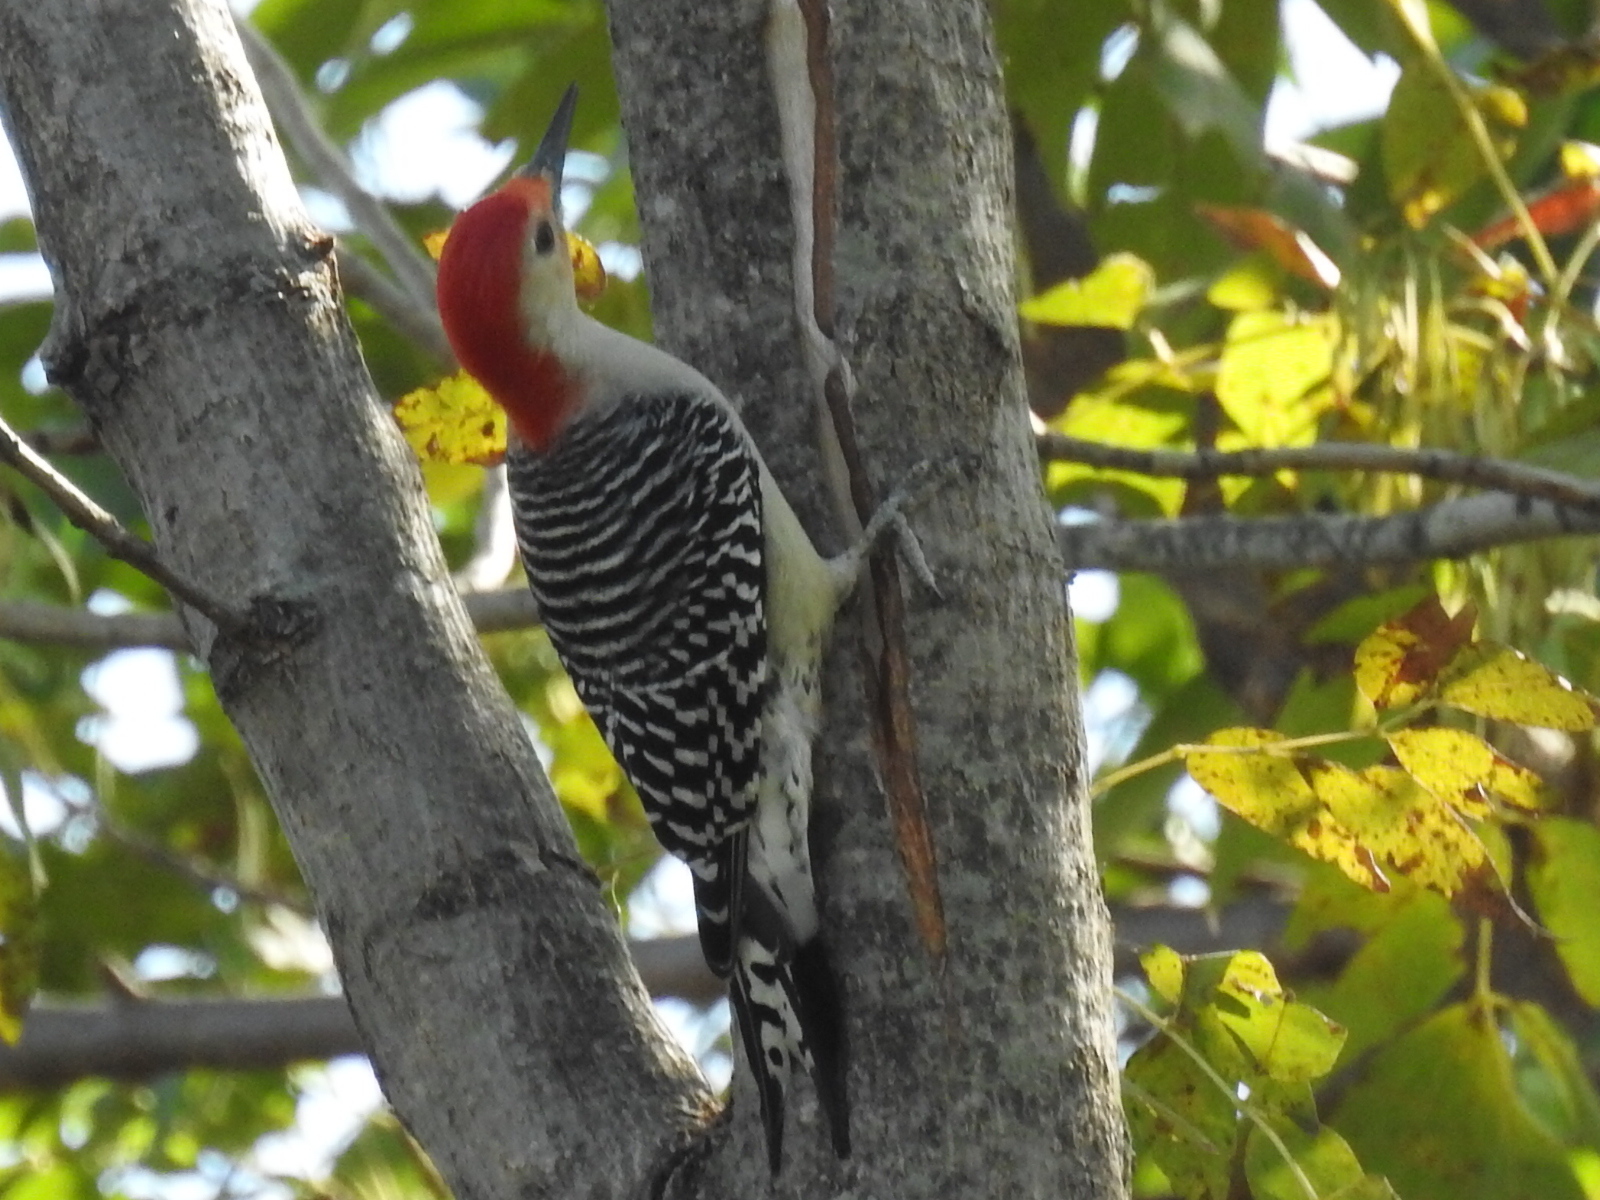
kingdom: Animalia
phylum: Chordata
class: Aves
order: Piciformes
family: Picidae
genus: Melanerpes
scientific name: Melanerpes carolinus
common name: Red-bellied woodpecker
